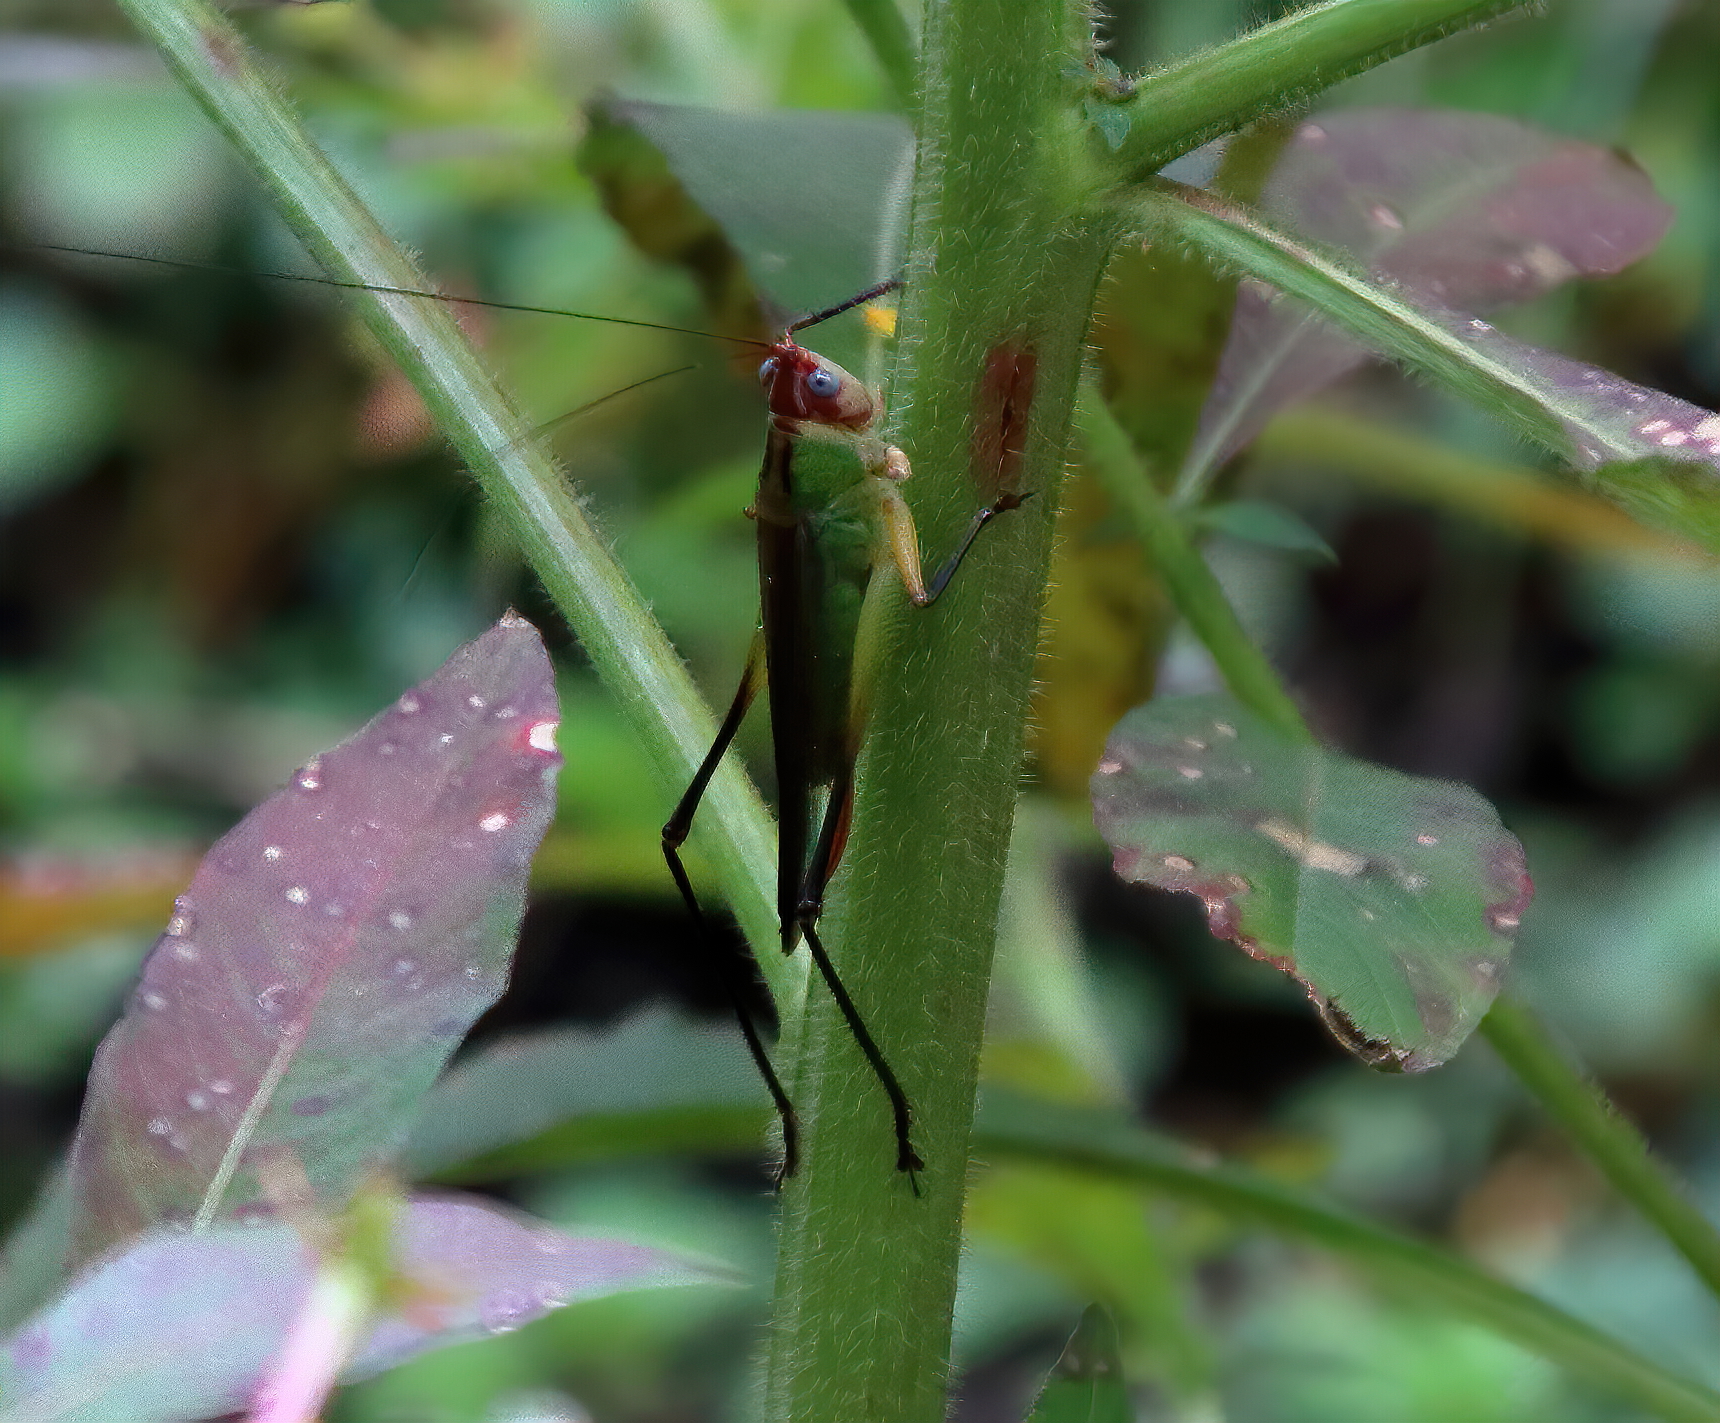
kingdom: Animalia
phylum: Arthropoda
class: Insecta
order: Orthoptera
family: Tettigoniidae
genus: Orchelimum
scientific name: Orchelimum pulchellum
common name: Handsome meadow katydid
